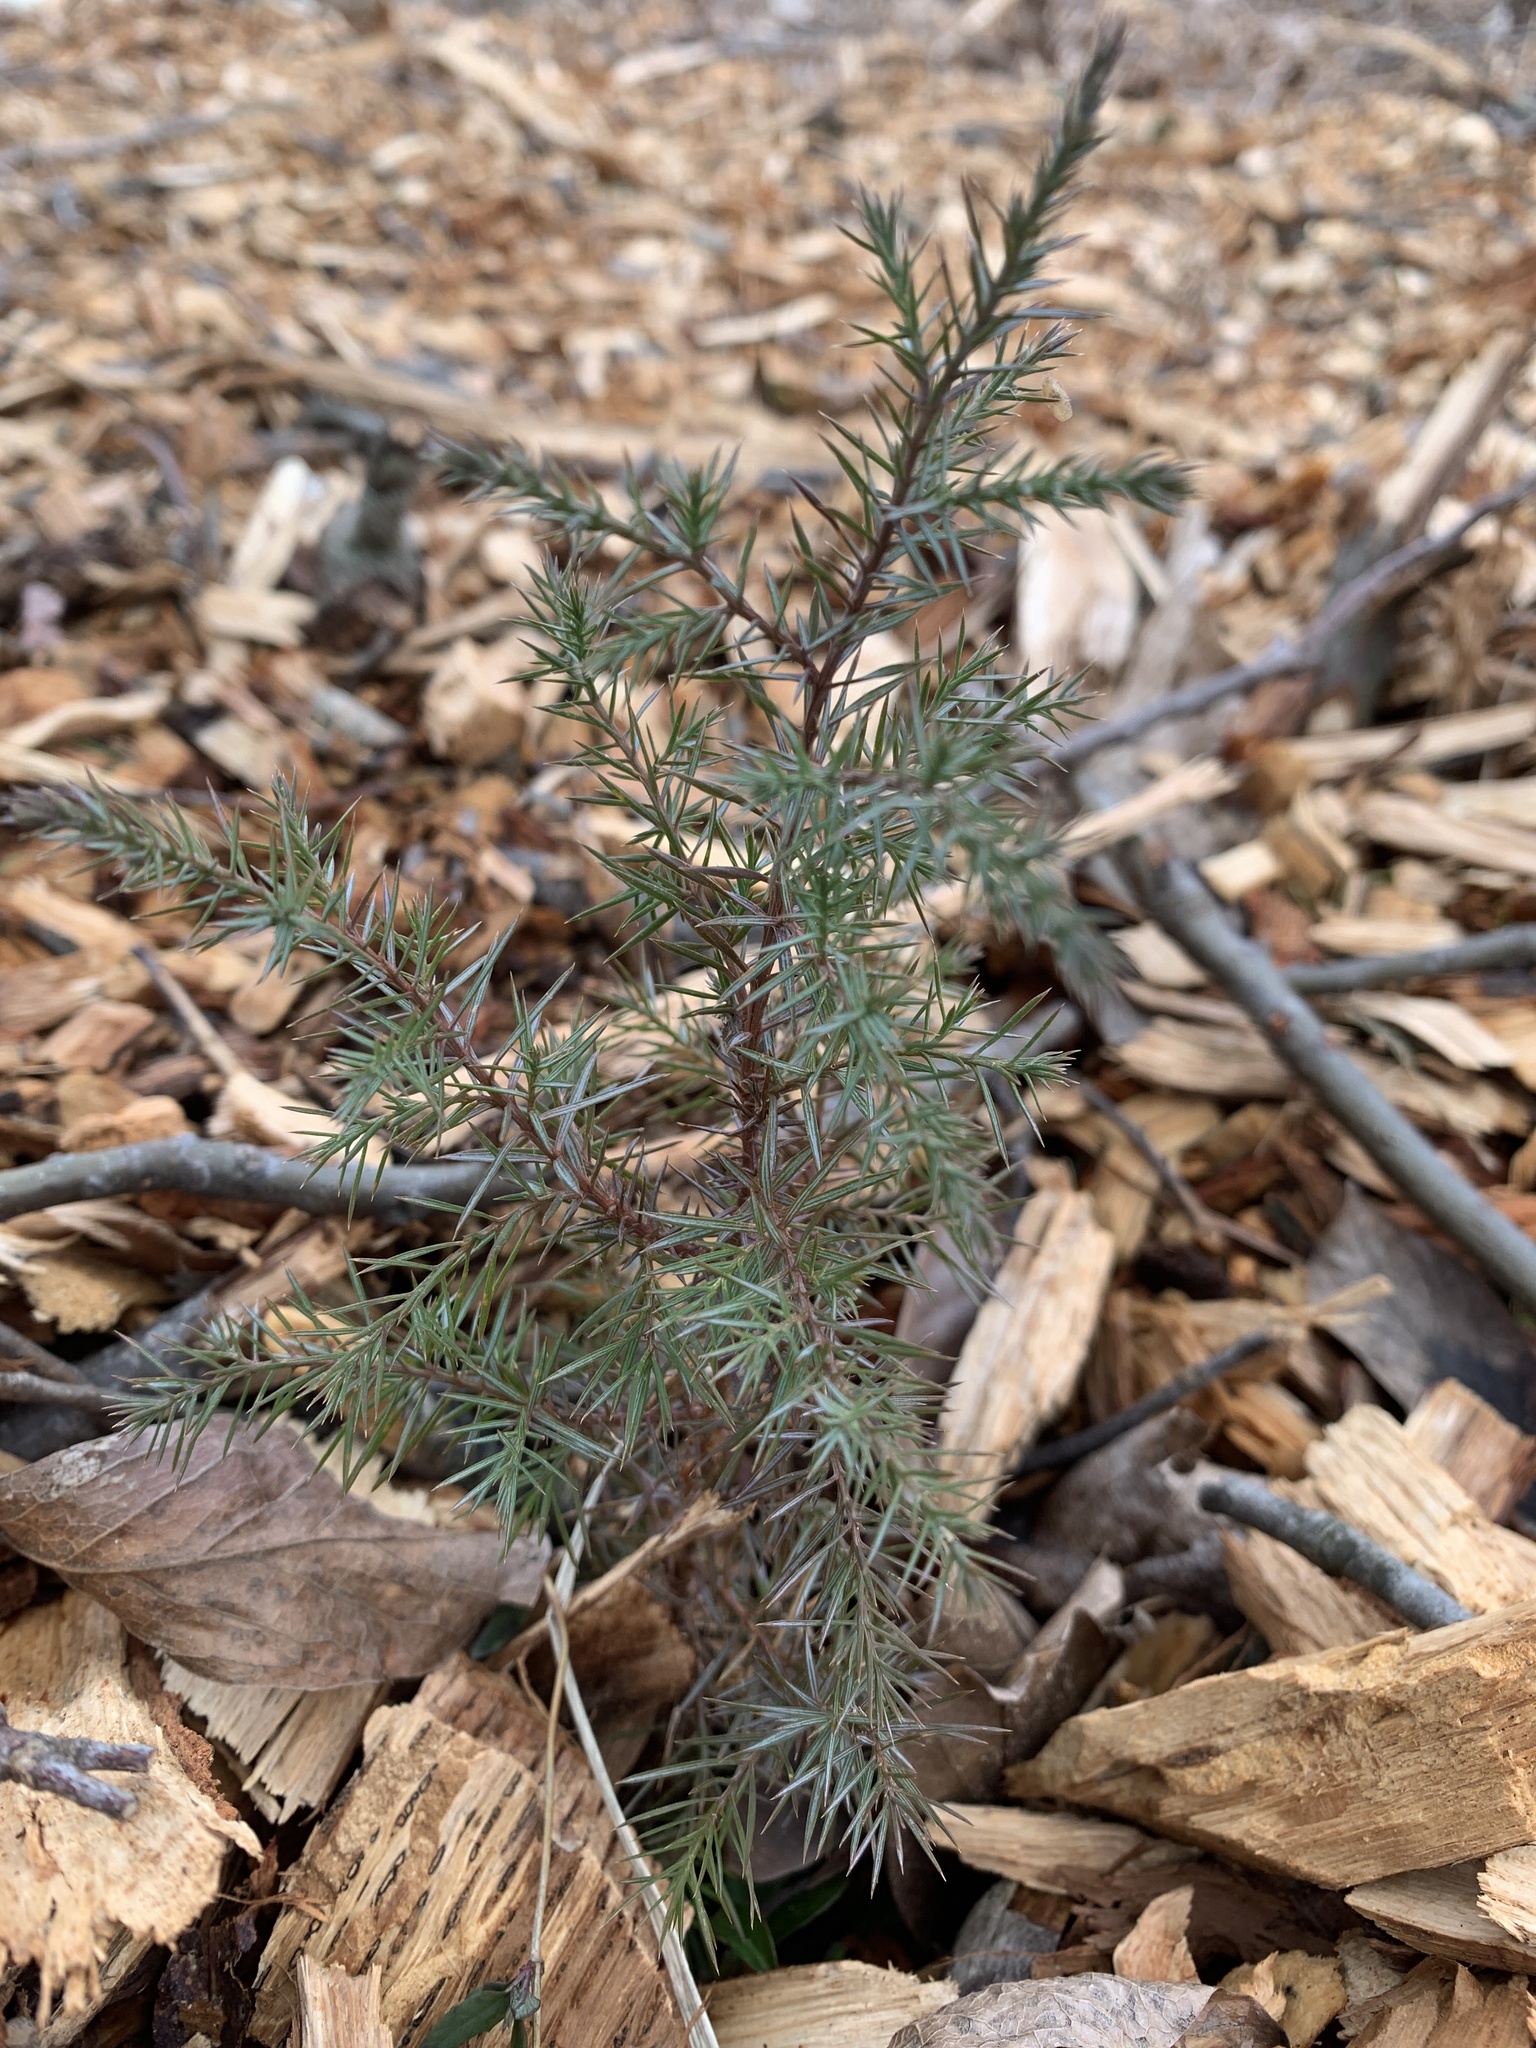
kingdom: Plantae
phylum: Tracheophyta
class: Pinopsida
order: Pinales
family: Cupressaceae
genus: Juniperus
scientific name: Juniperus virginiana
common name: Red juniper
